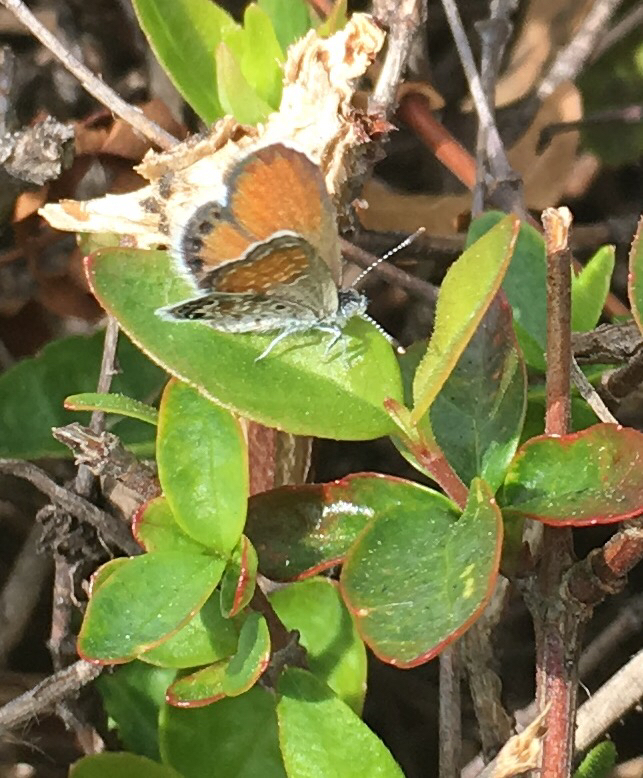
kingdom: Animalia
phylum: Arthropoda
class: Insecta
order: Lepidoptera
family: Lycaenidae
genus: Brephidium
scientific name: Brephidium exilis
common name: Pygmy blue
